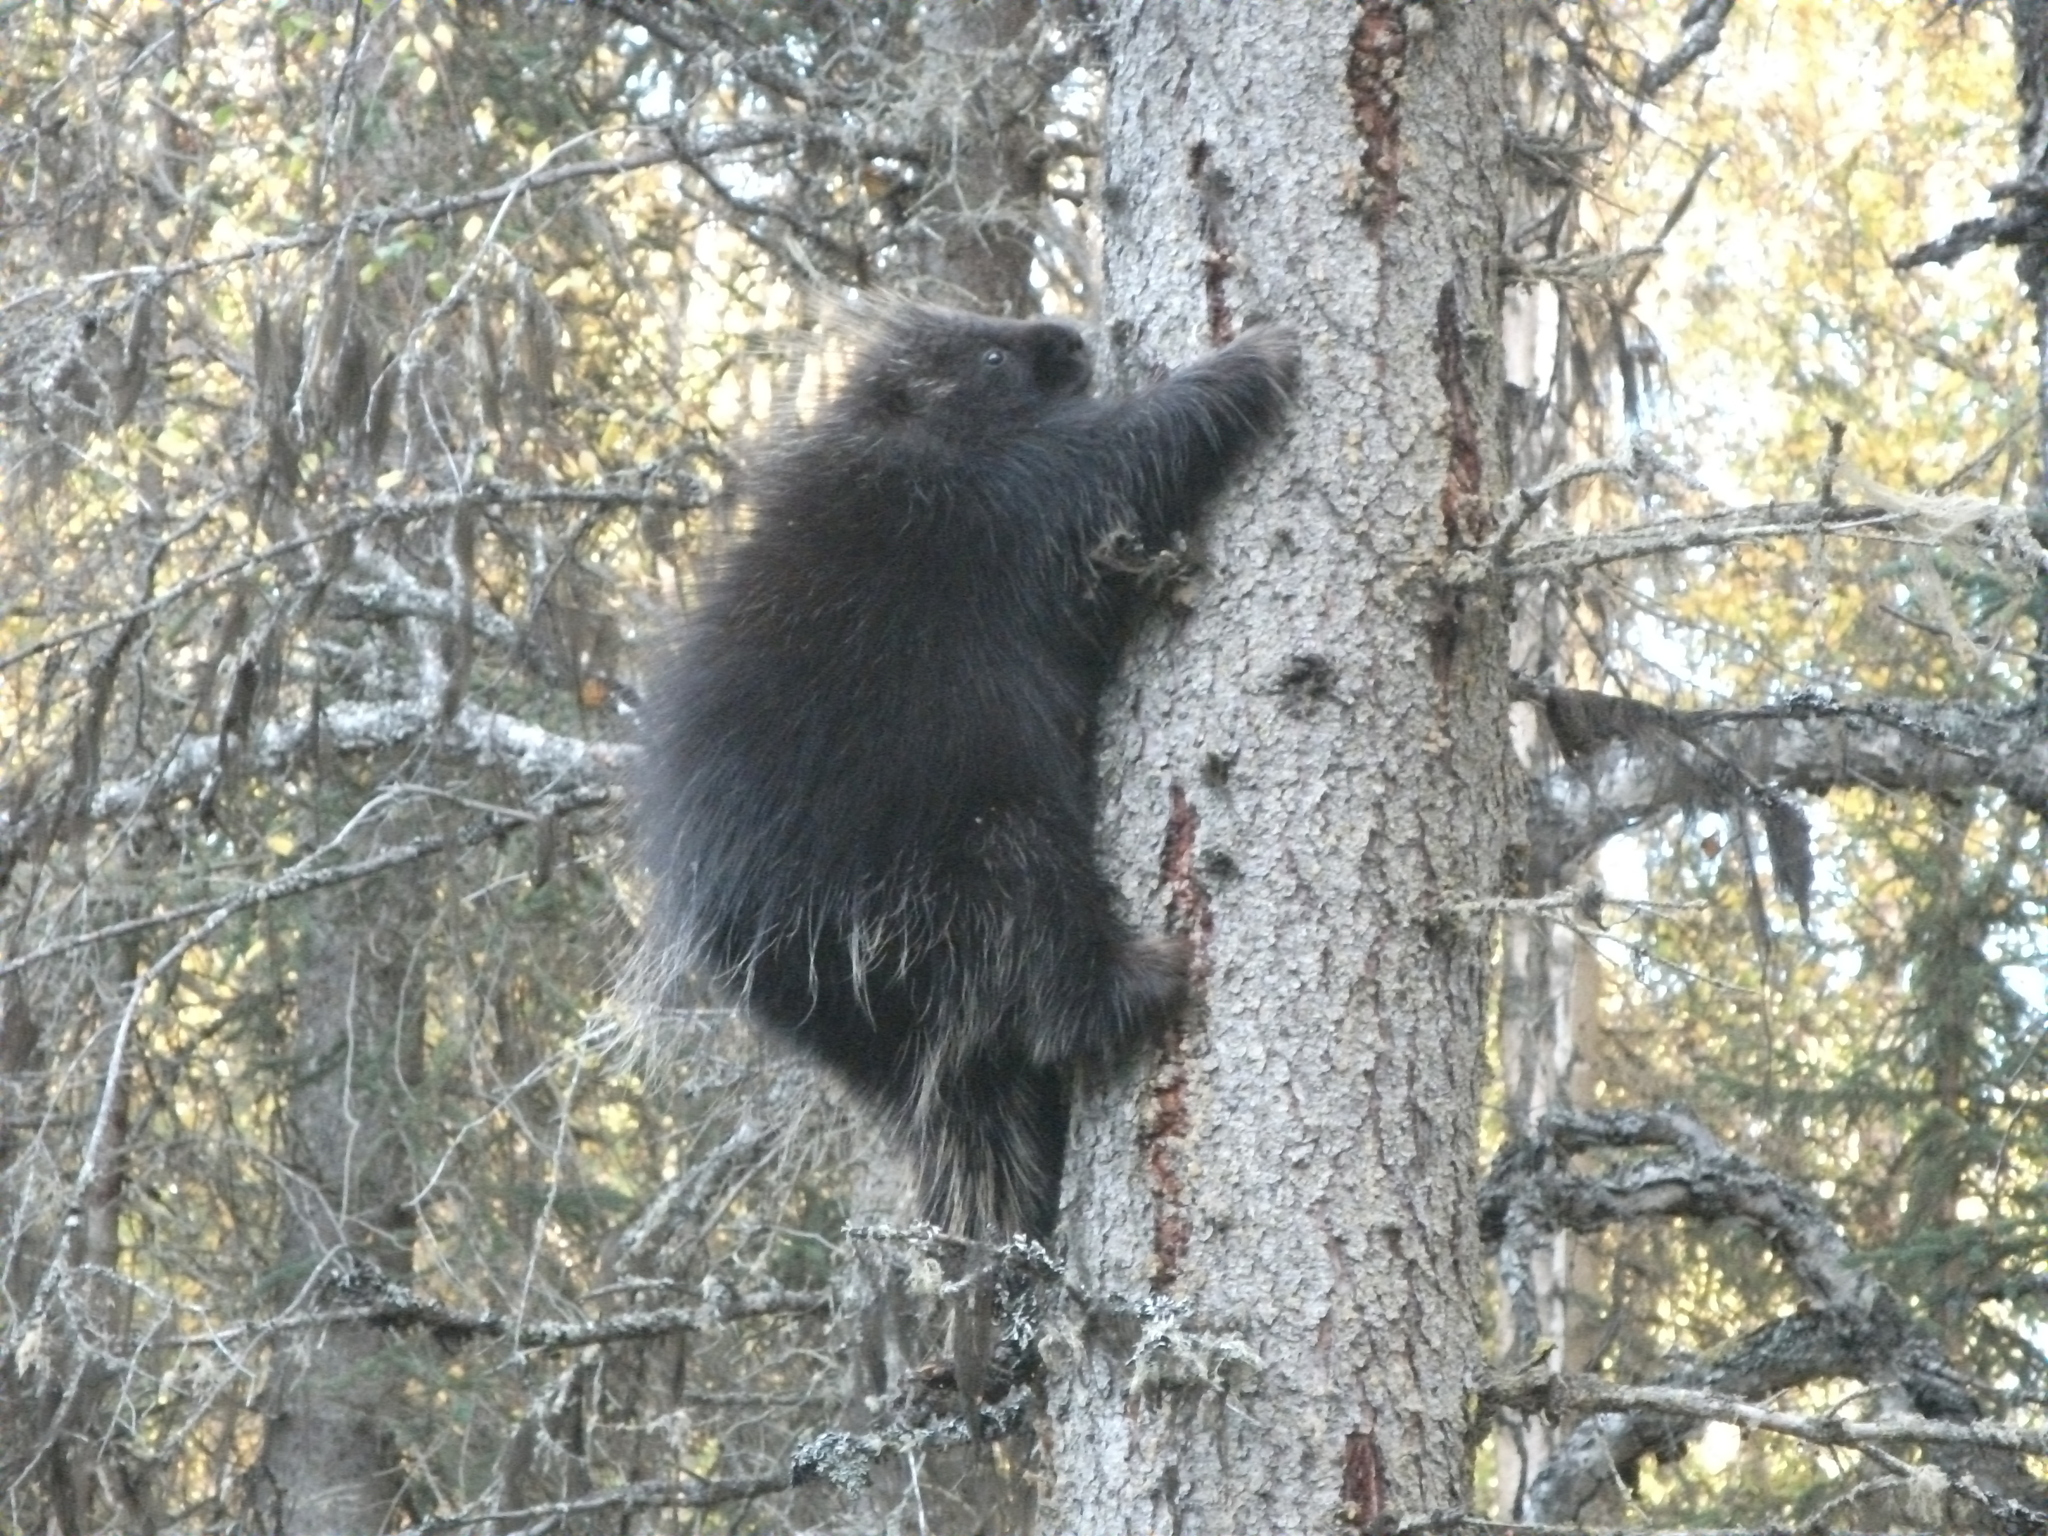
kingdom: Animalia
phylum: Chordata
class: Mammalia
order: Rodentia
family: Erethizontidae
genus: Erethizon
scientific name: Erethizon dorsatus
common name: North american porcupine
